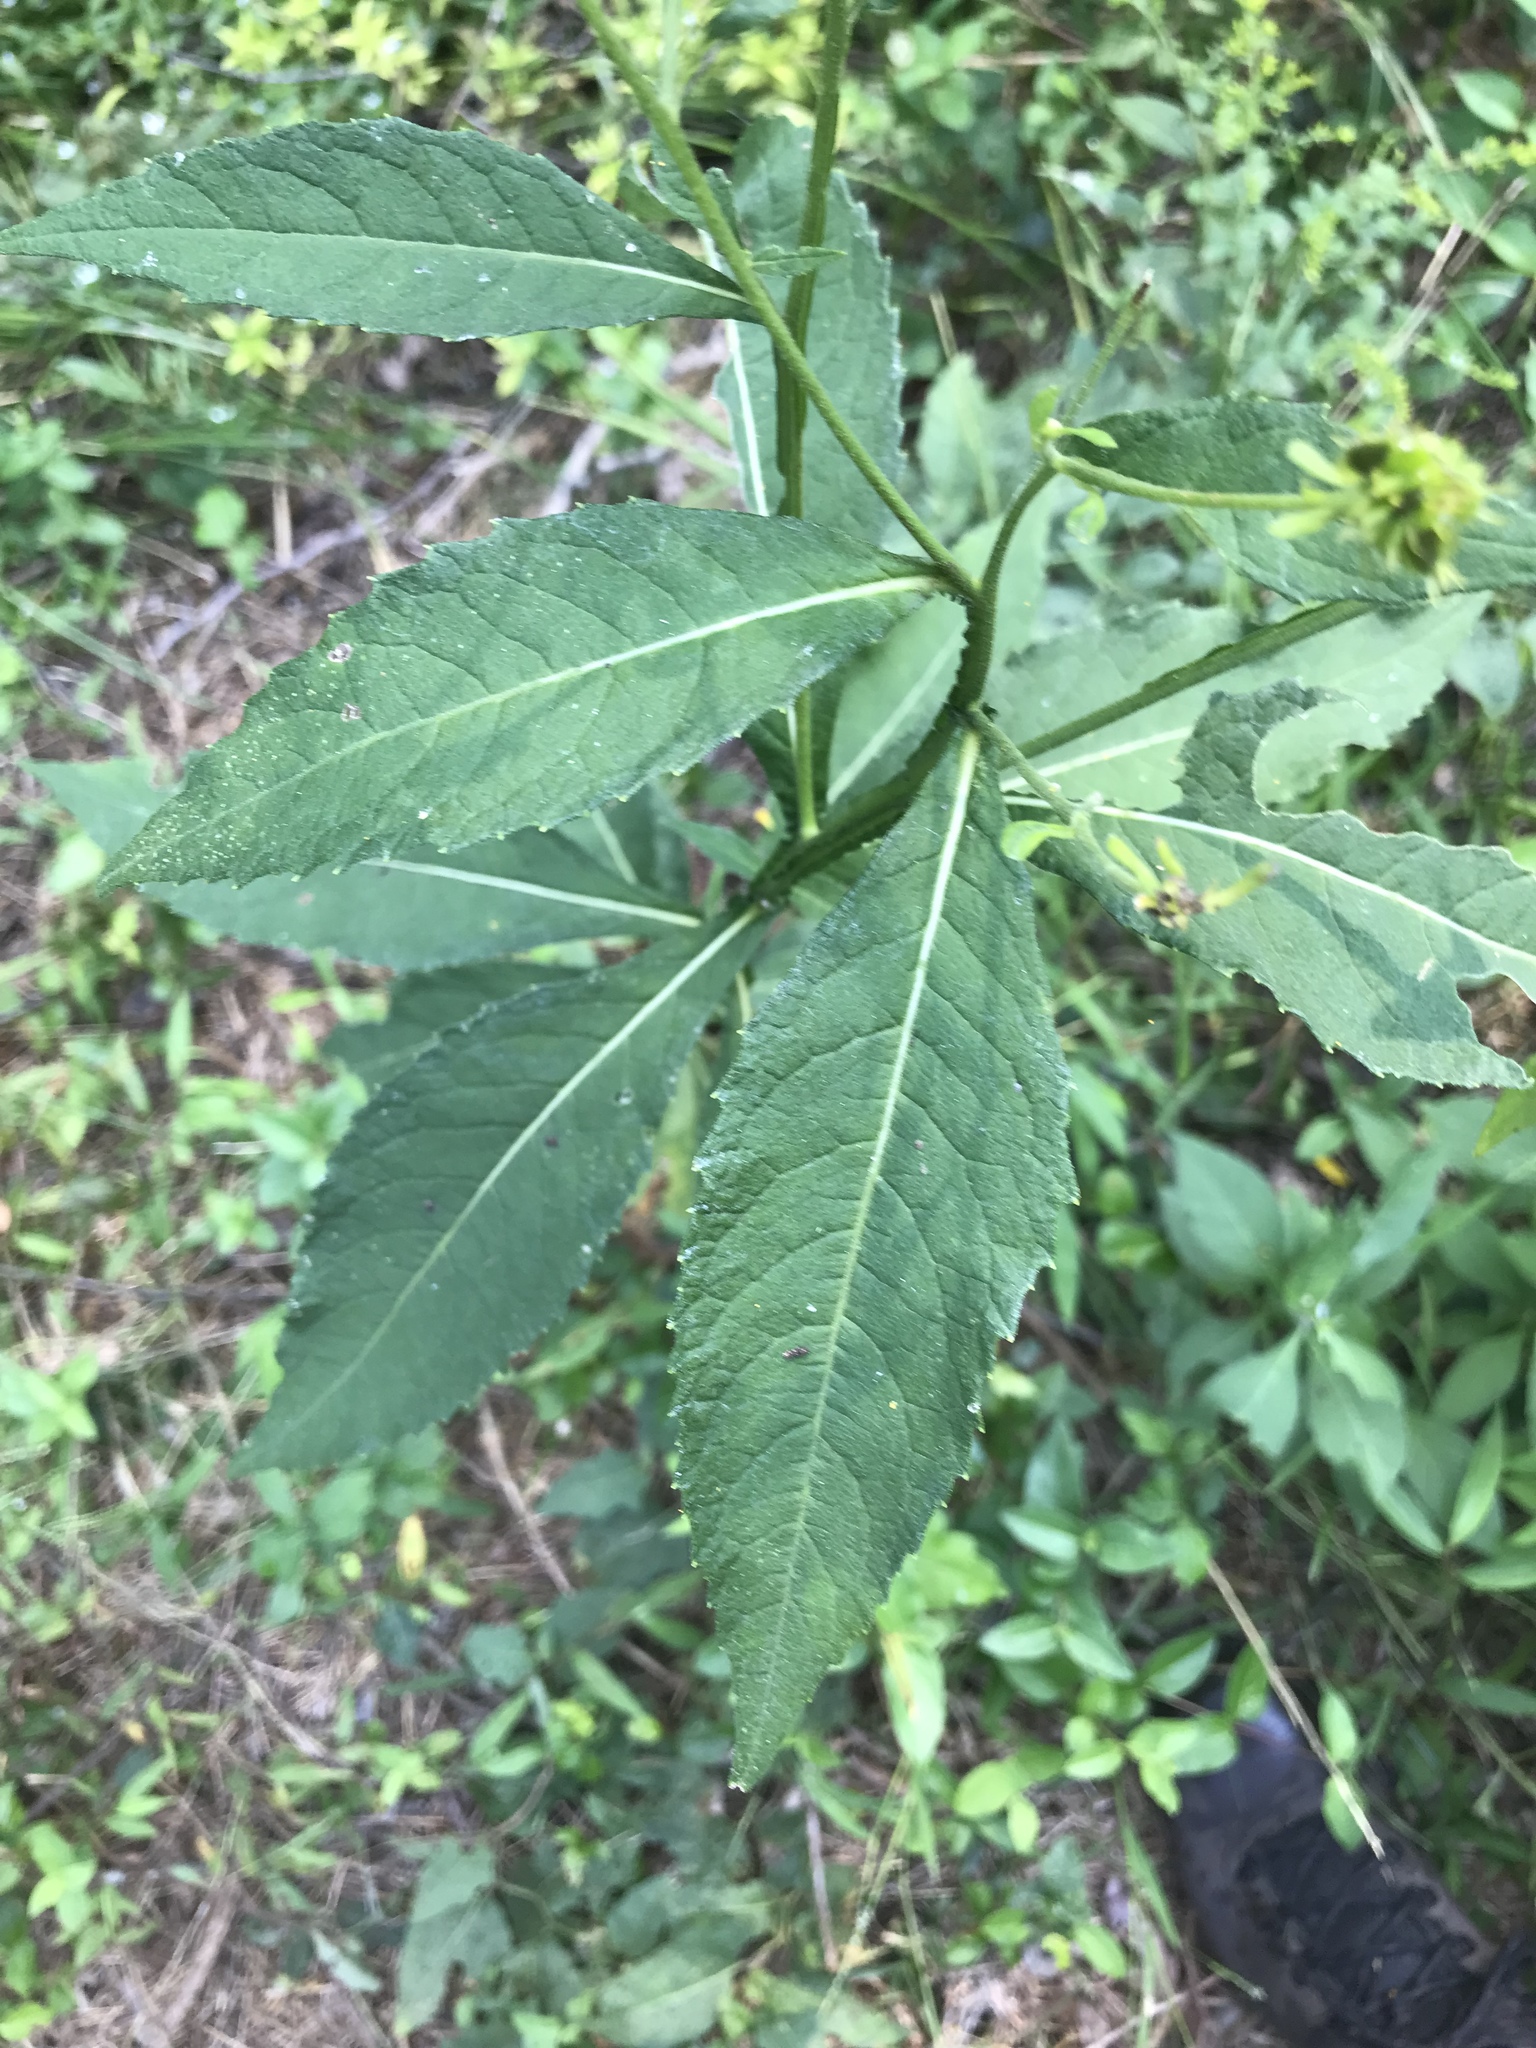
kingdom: Plantae
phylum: Tracheophyta
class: Magnoliopsida
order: Asterales
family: Asteraceae
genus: Verbesina
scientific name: Verbesina alternifolia
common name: Wingstem
